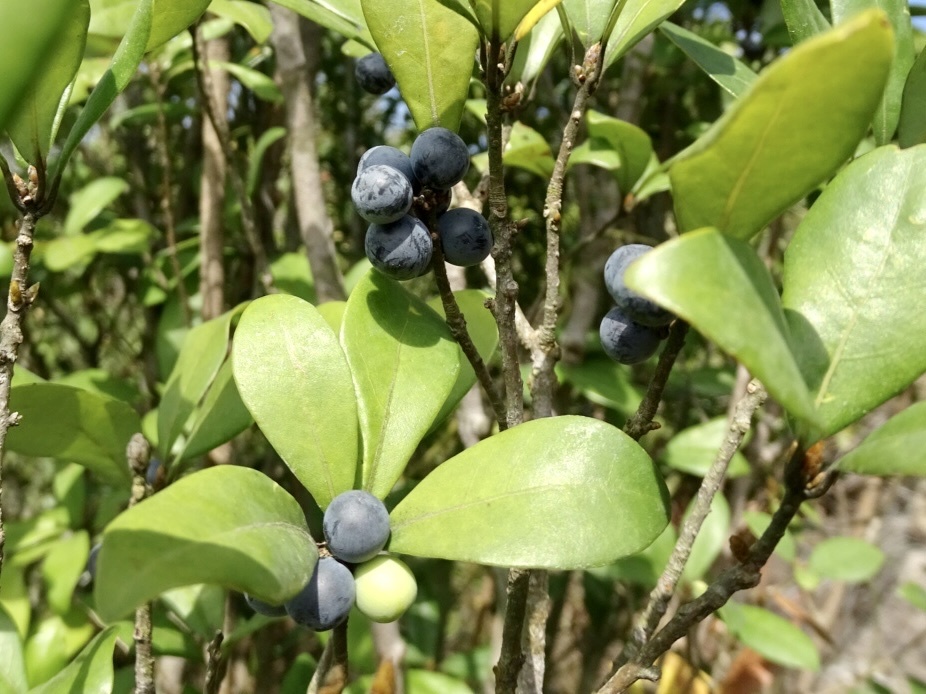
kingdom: Plantae
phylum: Tracheophyta
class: Magnoliopsida
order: Laurales
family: Lauraceae
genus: Litsea
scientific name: Litsea rotundifolia
